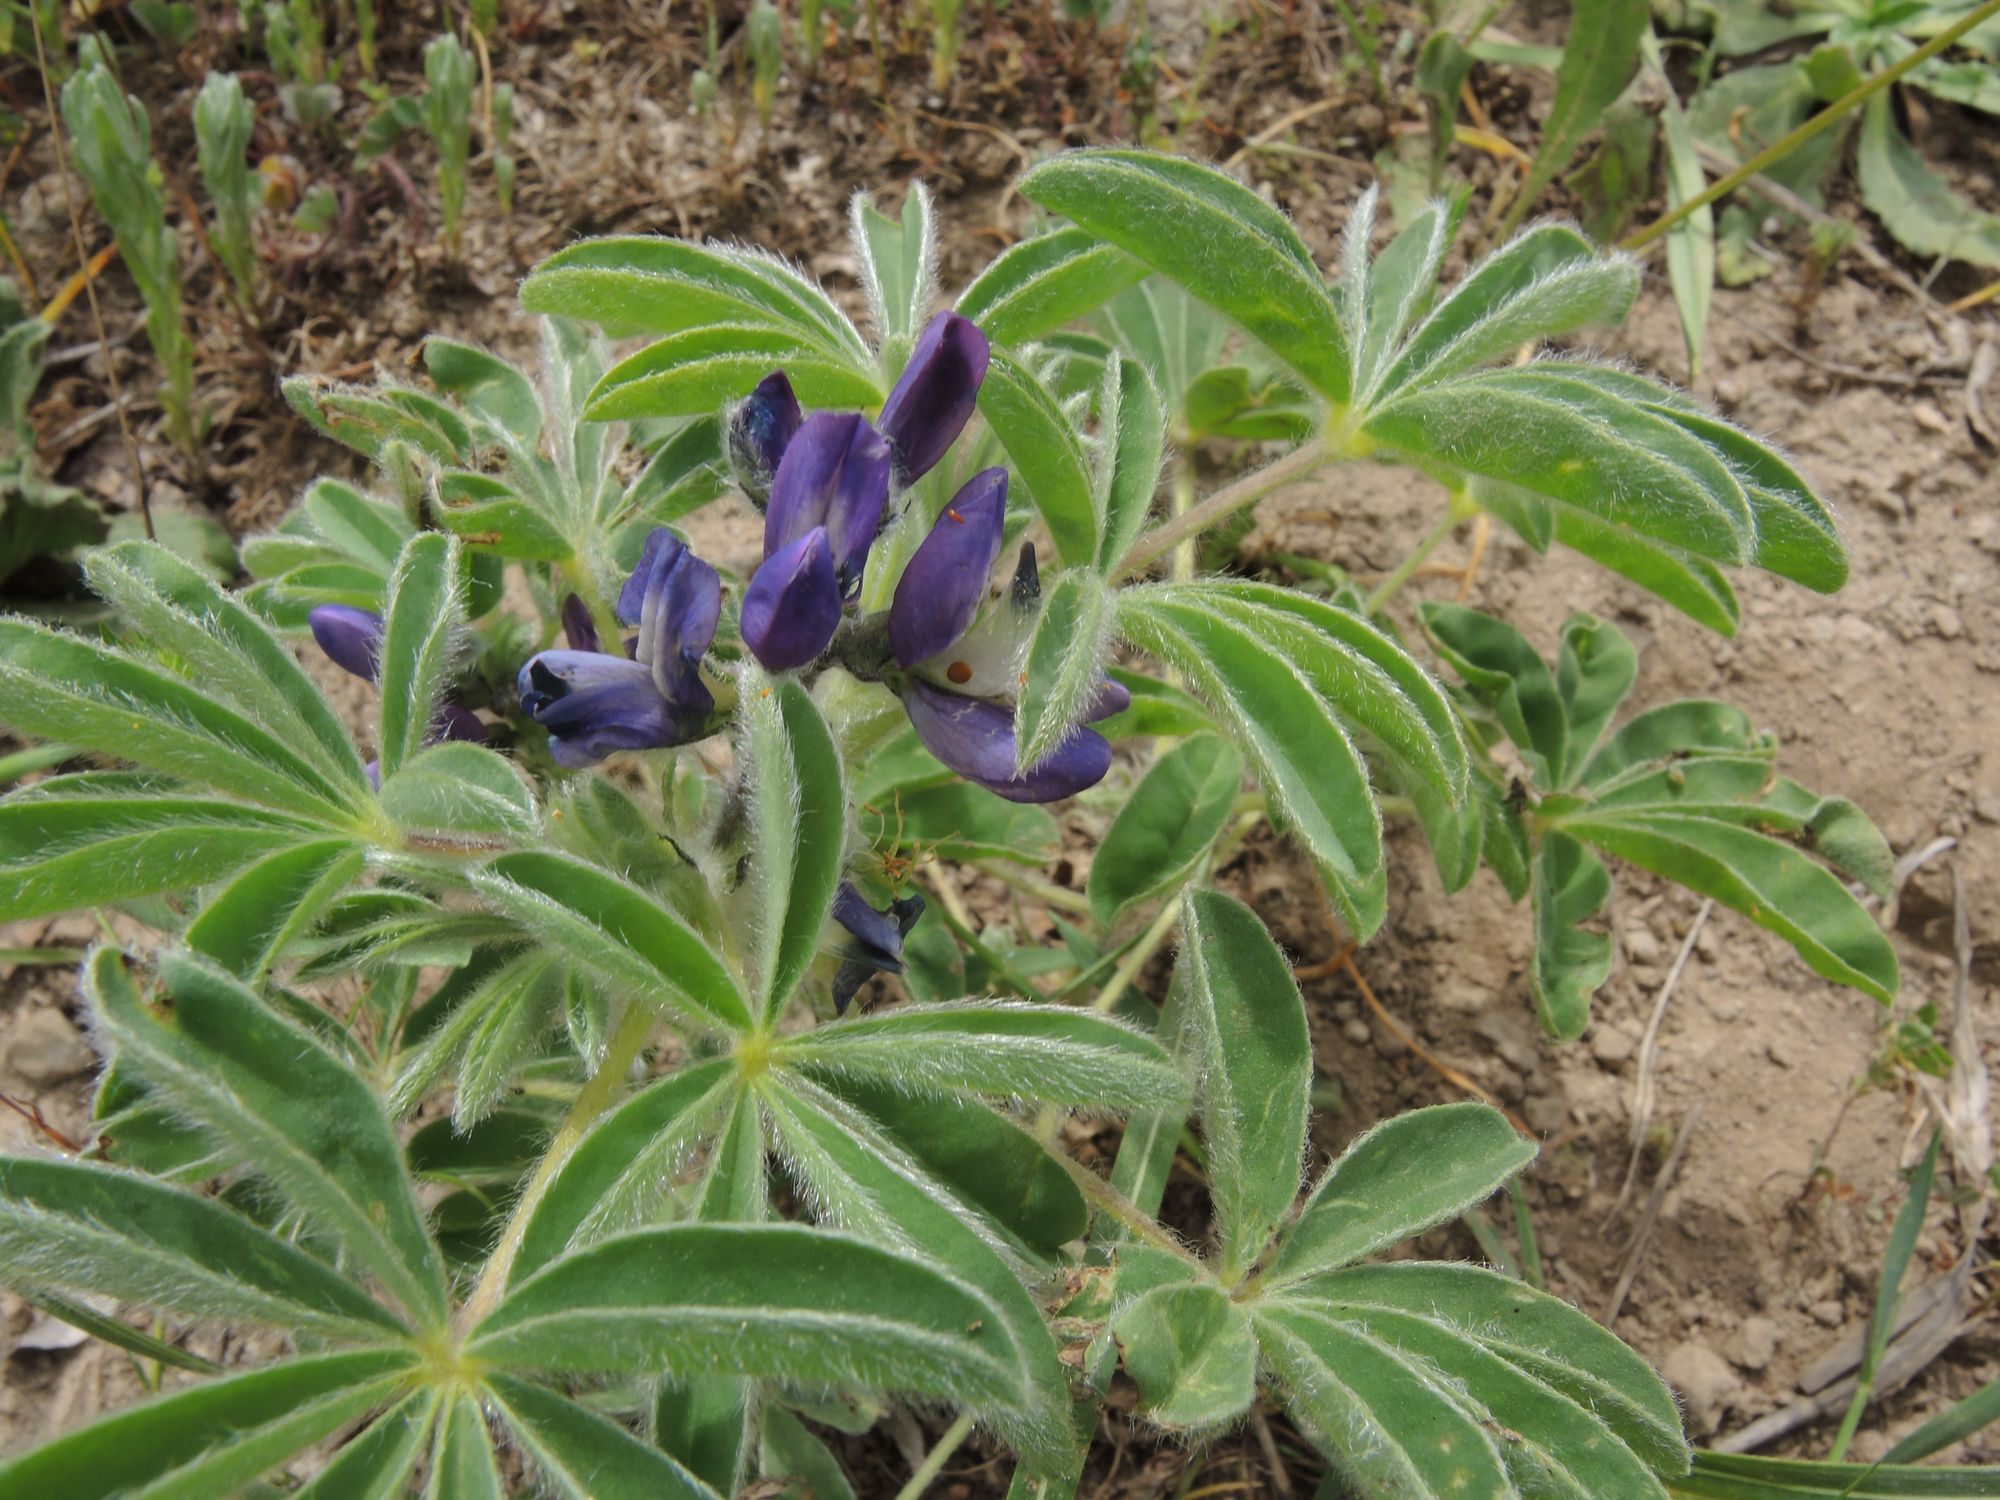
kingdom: Plantae
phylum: Tracheophyta
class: Magnoliopsida
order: Fabales
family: Fabaceae
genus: Lupinus
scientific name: Lupinus pilosus
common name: Blue lupine
